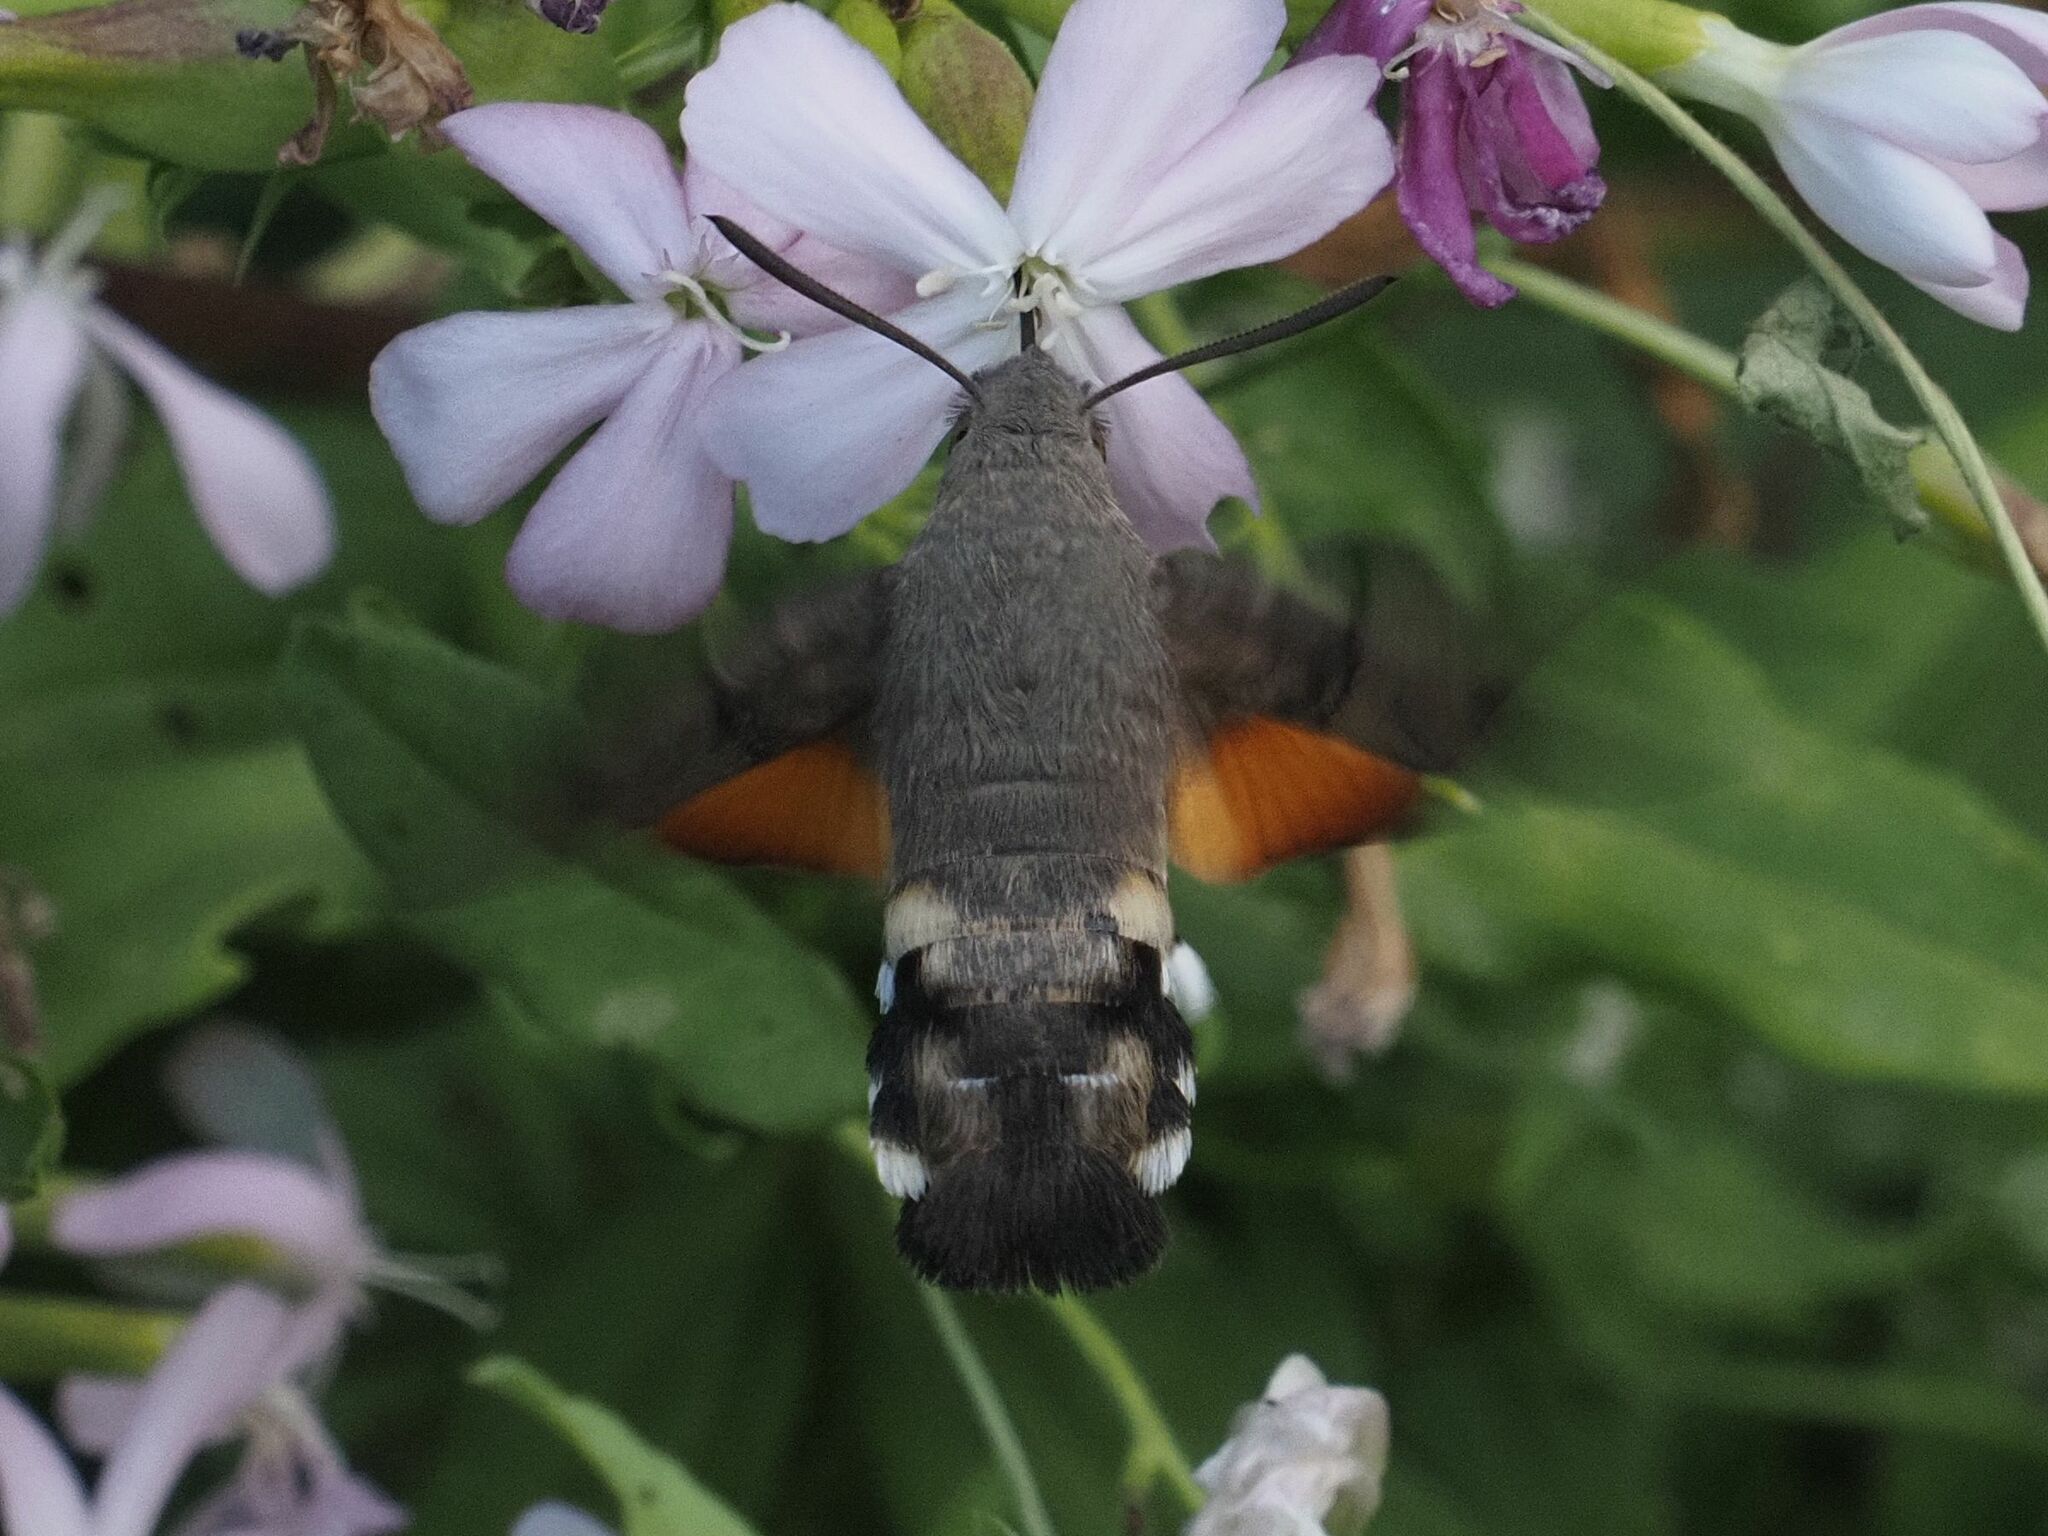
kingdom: Animalia
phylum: Arthropoda
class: Insecta
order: Lepidoptera
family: Sphingidae
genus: Macroglossum
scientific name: Macroglossum stellatarum
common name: Humming-bird hawk-moth
